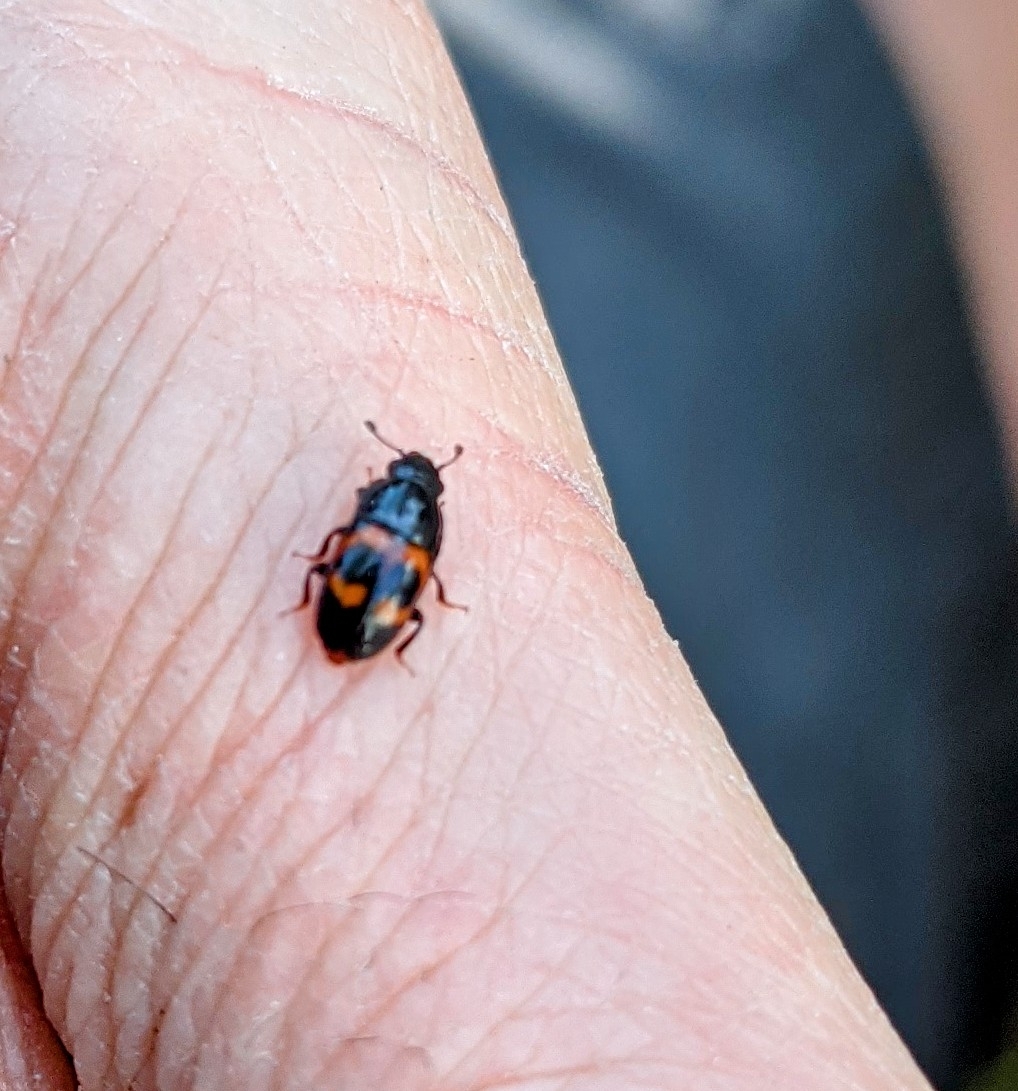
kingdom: Animalia
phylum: Arthropoda
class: Insecta
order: Coleoptera
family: Nitidulidae
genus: Glischrochilus
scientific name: Glischrochilus sanguinolentus
